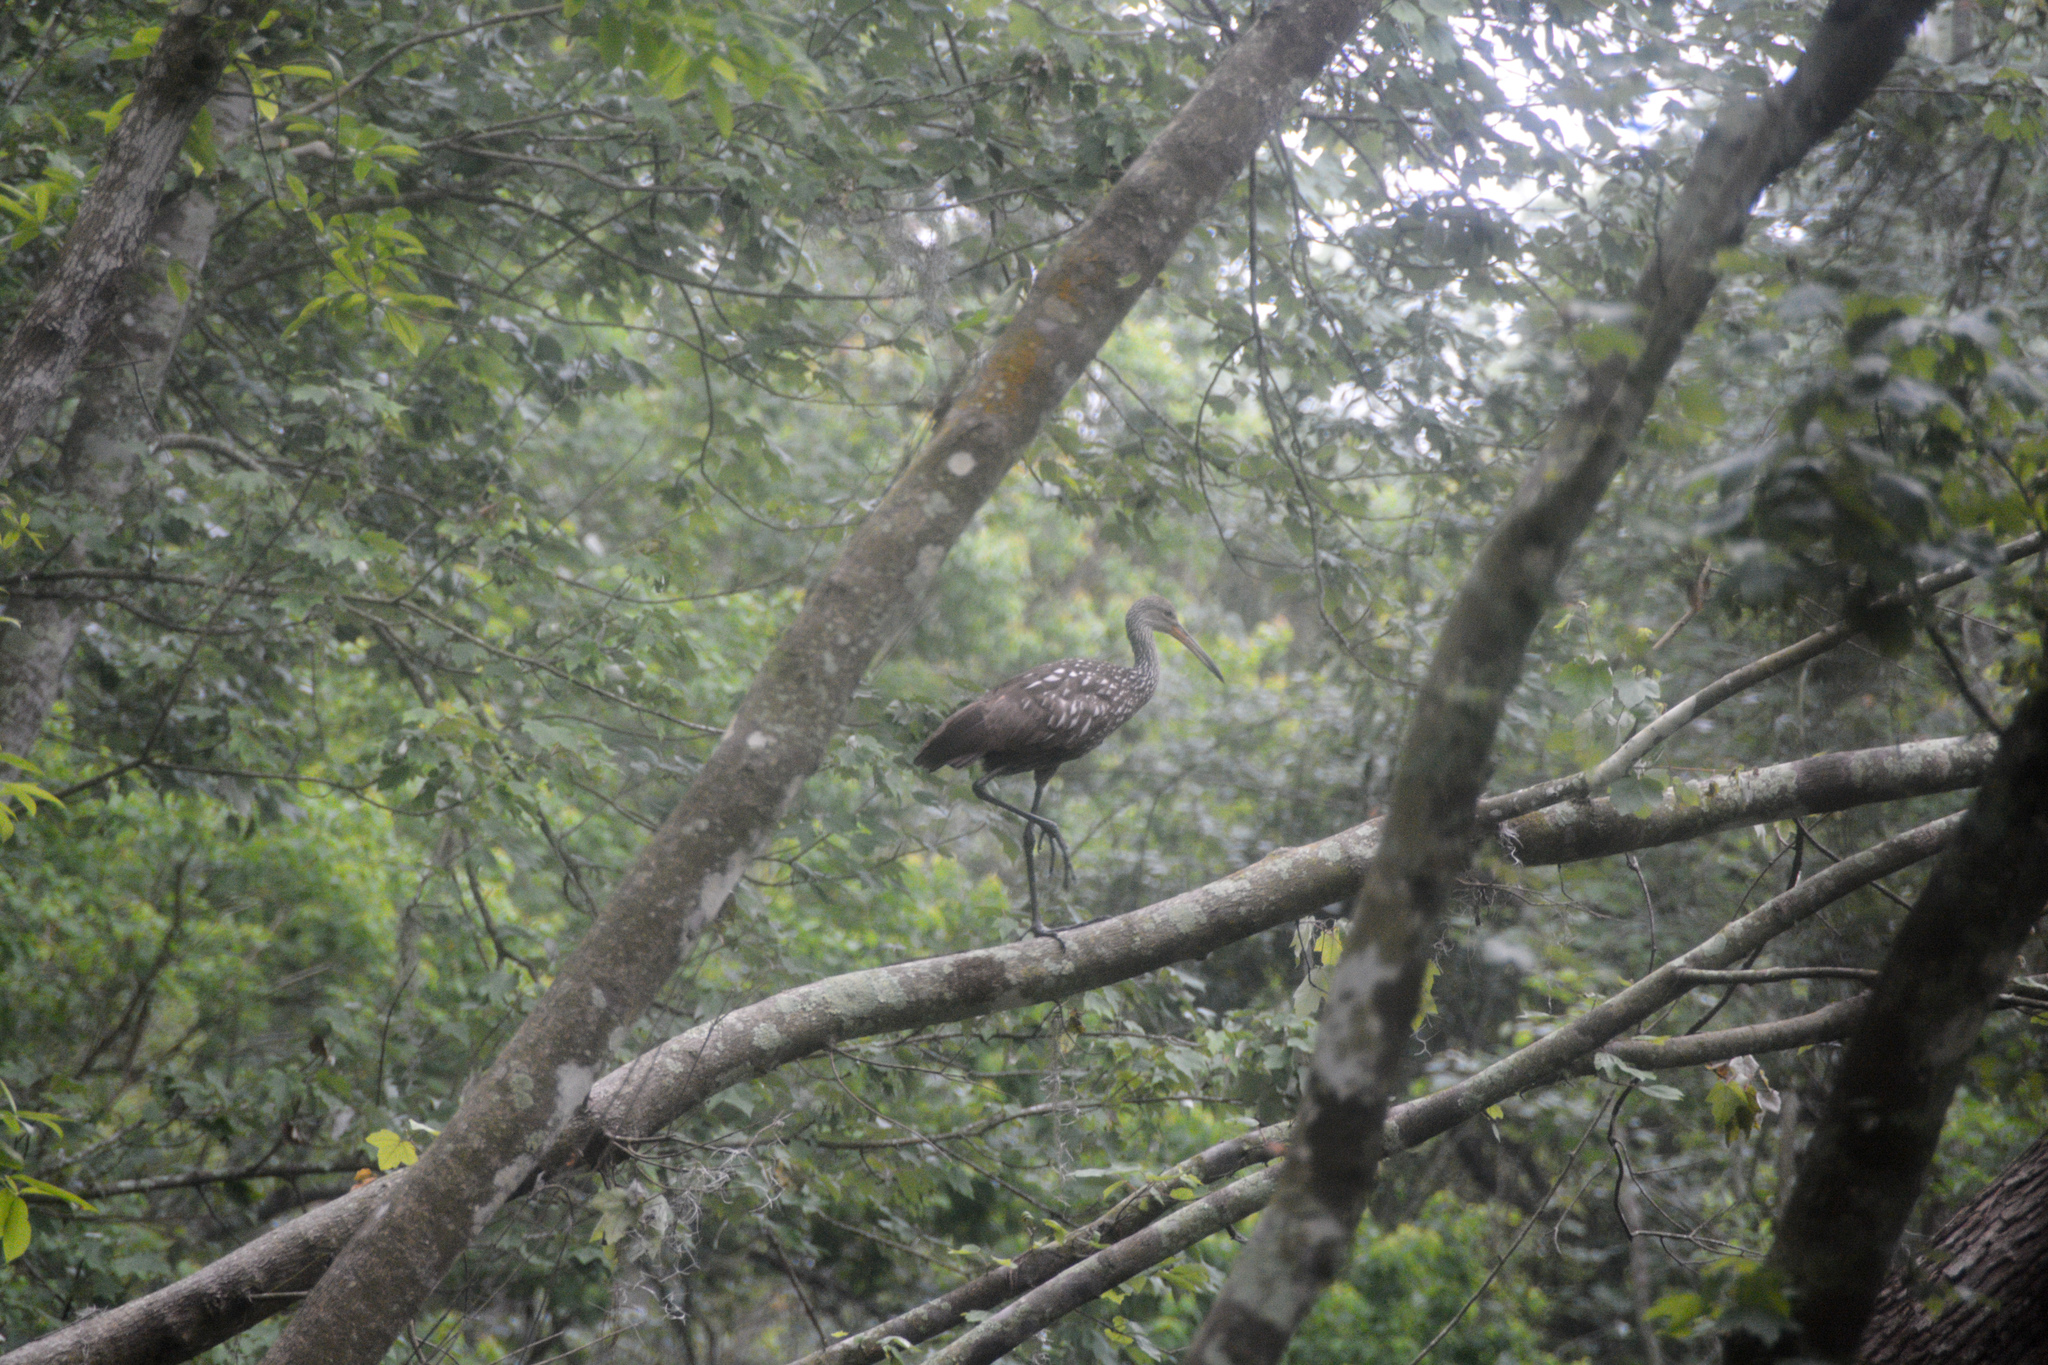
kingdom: Animalia
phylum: Chordata
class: Aves
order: Gruiformes
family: Aramidae
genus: Aramus
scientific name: Aramus guarauna
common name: Limpkin
